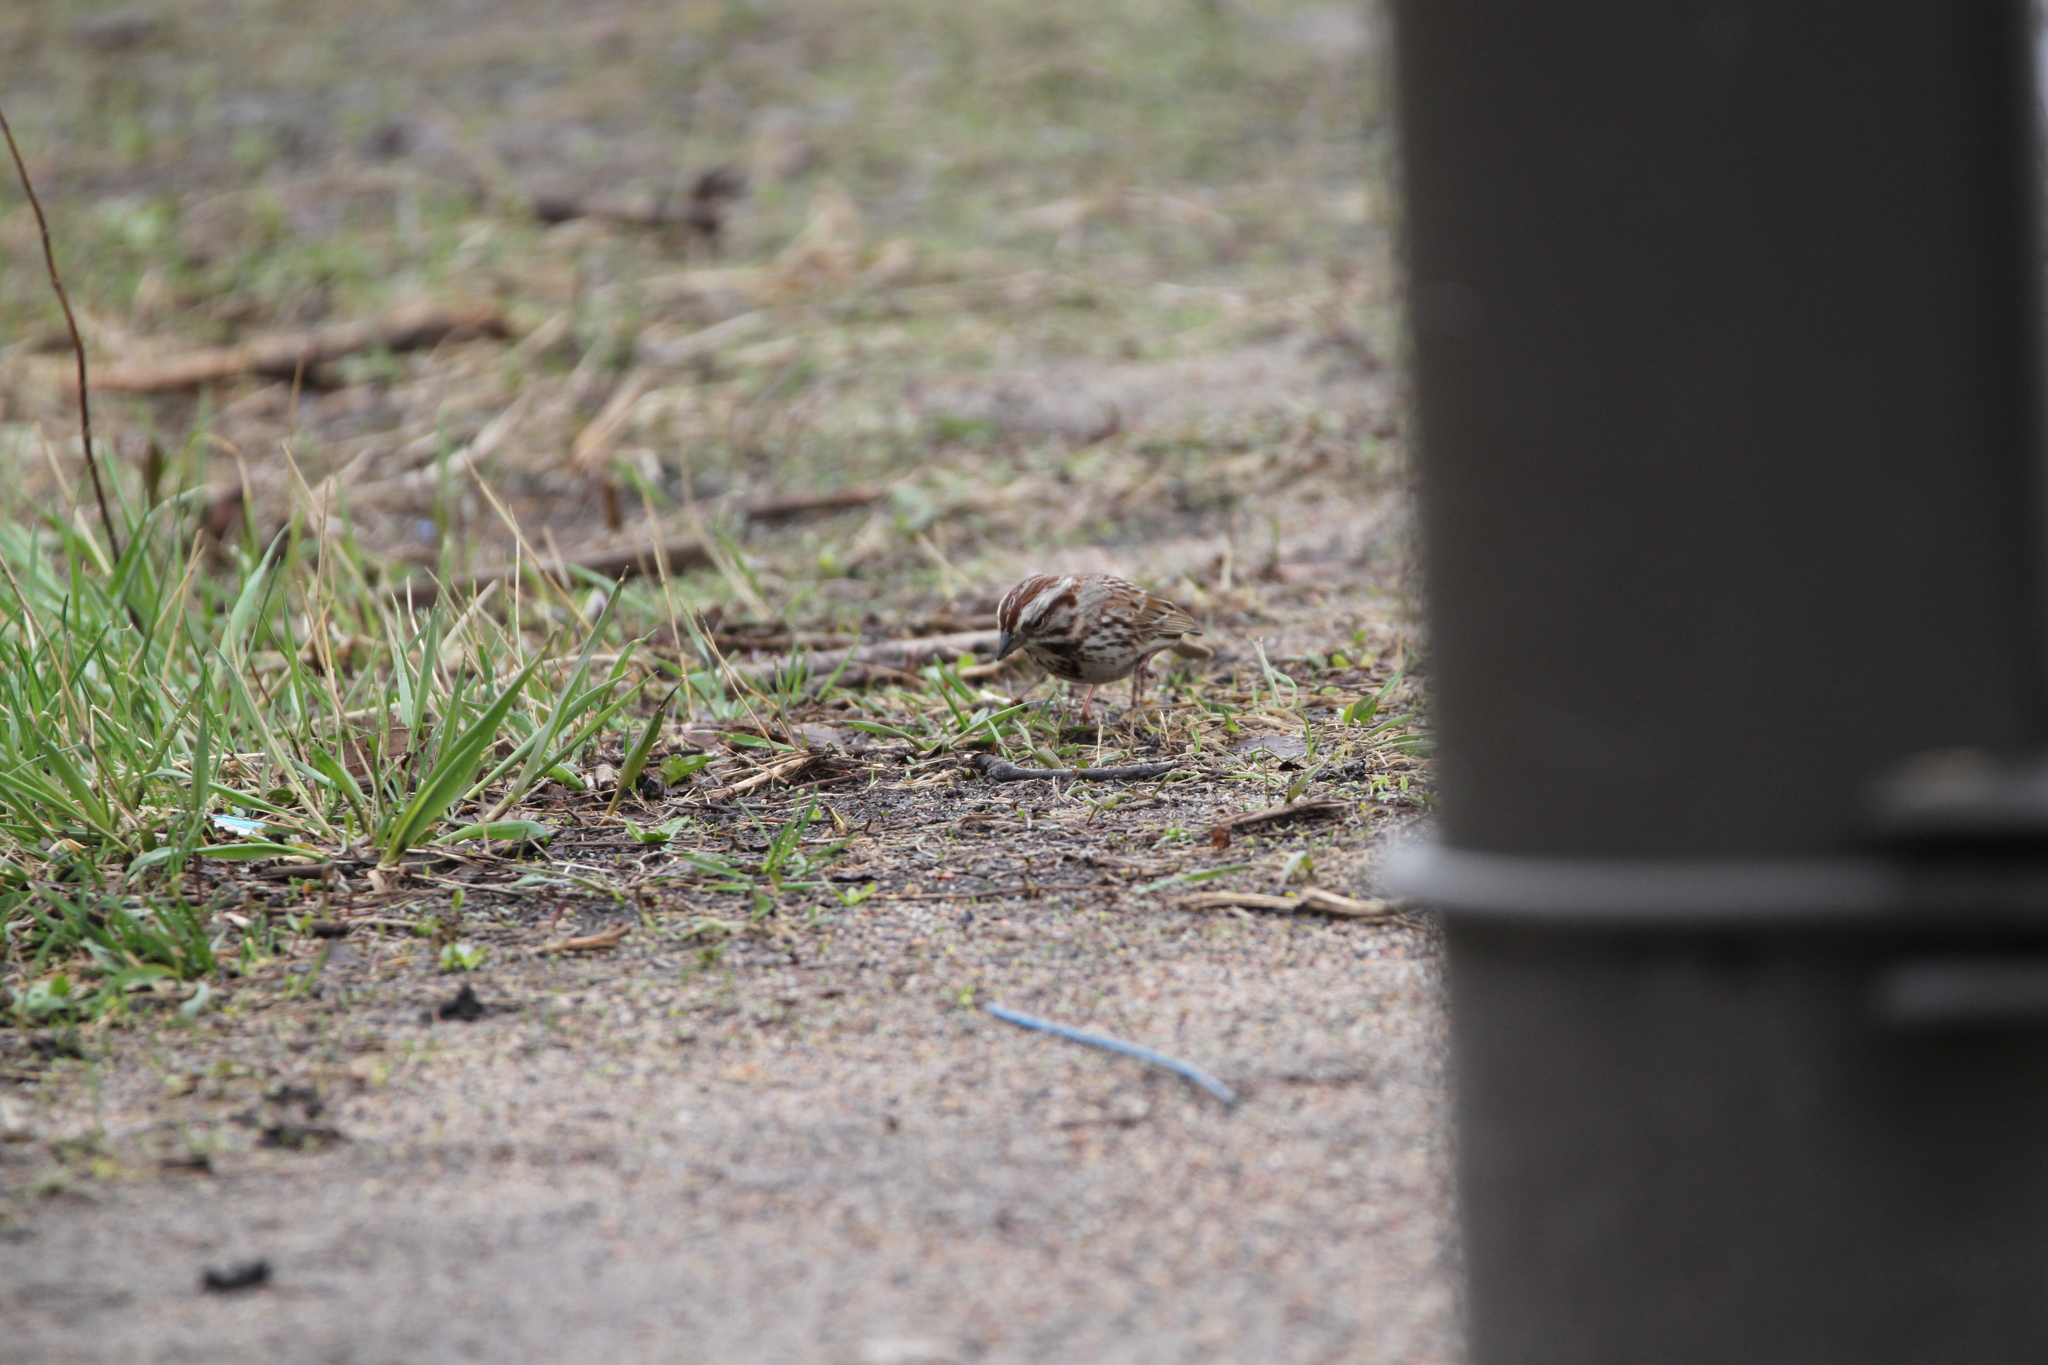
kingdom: Animalia
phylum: Chordata
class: Aves
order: Passeriformes
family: Passerellidae
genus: Melospiza
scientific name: Melospiza melodia
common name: Song sparrow
